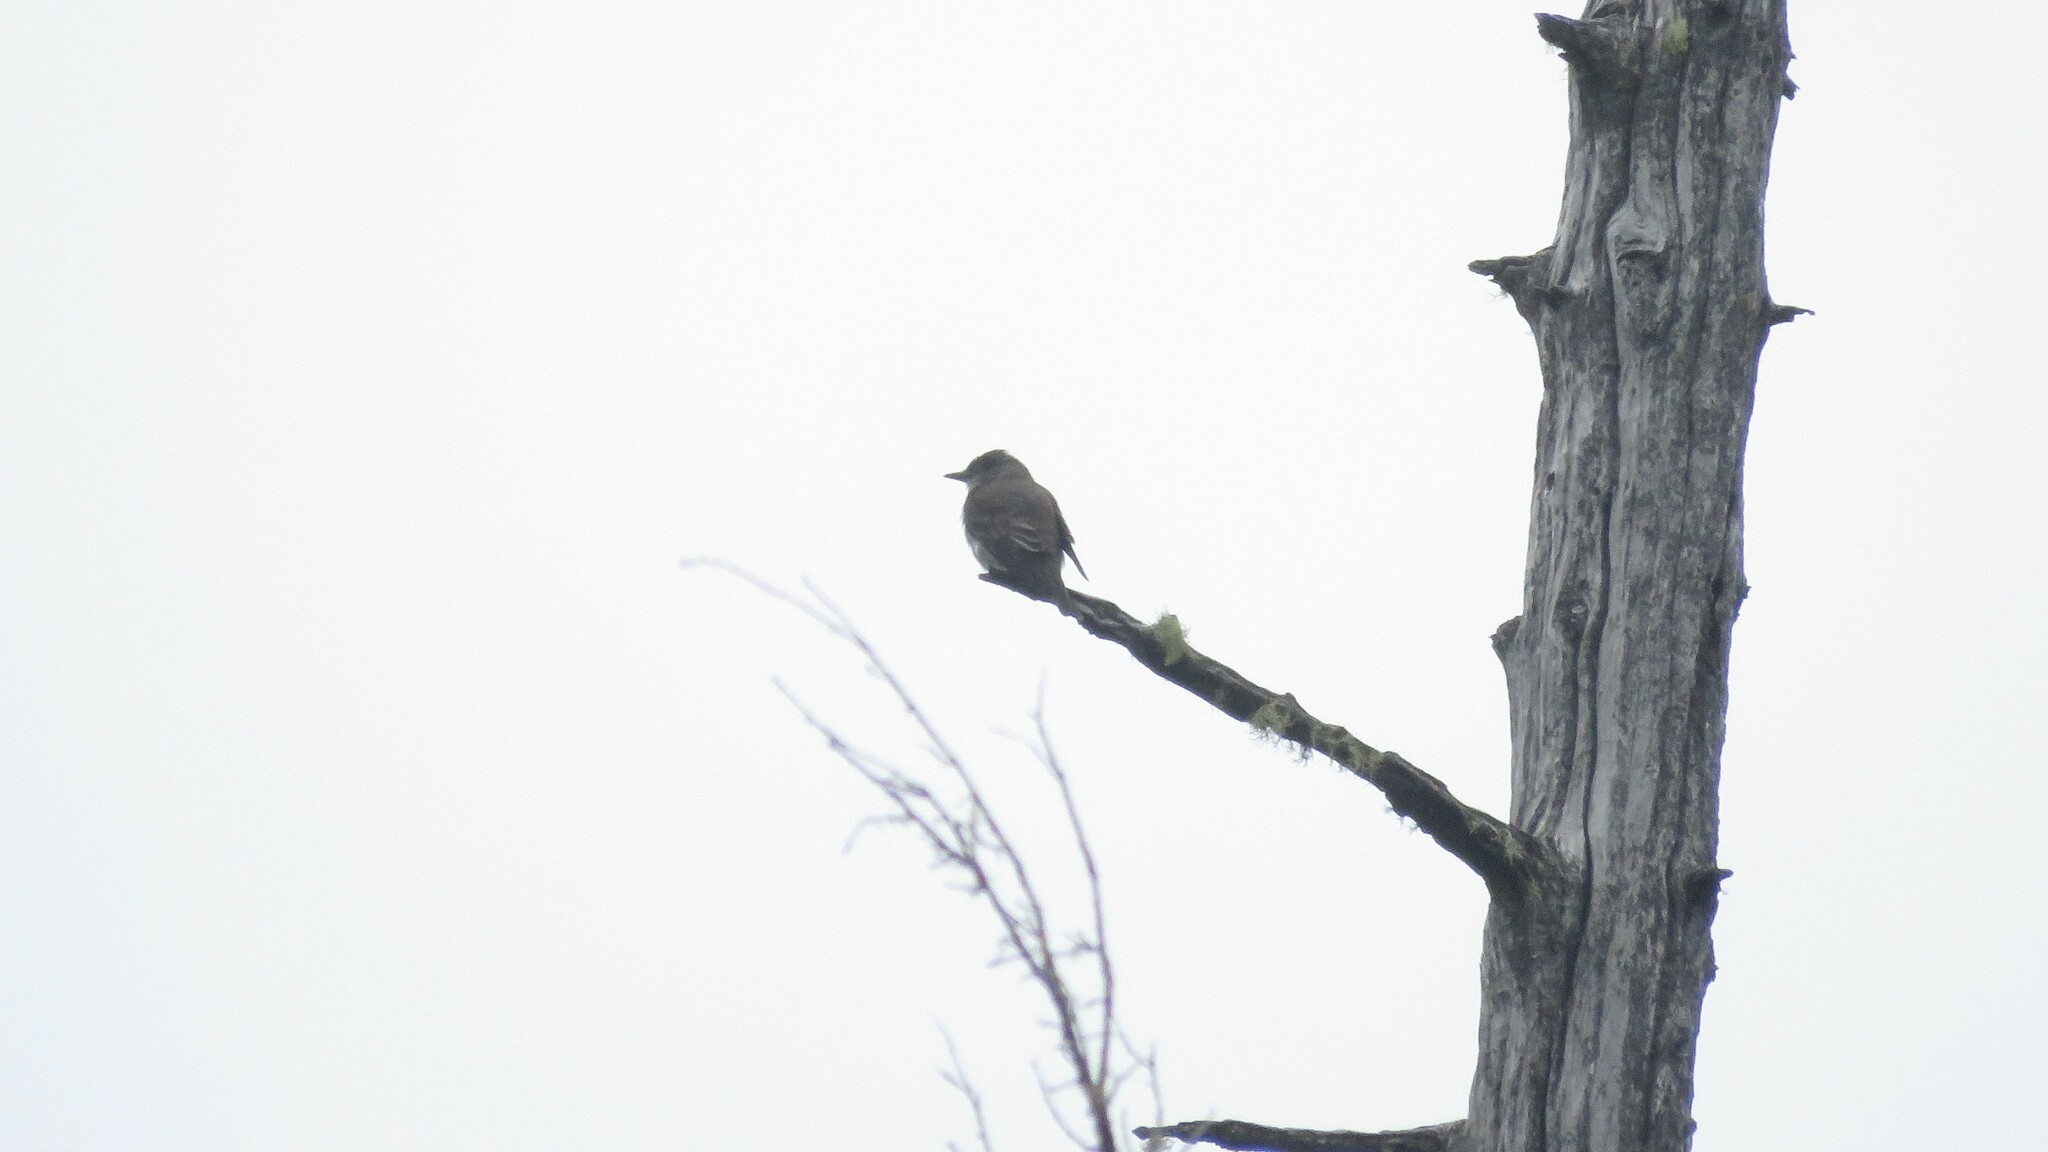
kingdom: Animalia
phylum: Chordata
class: Aves
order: Passeriformes
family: Tyrannidae
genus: Contopus
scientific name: Contopus cooperi
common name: Olive-sided flycatcher
